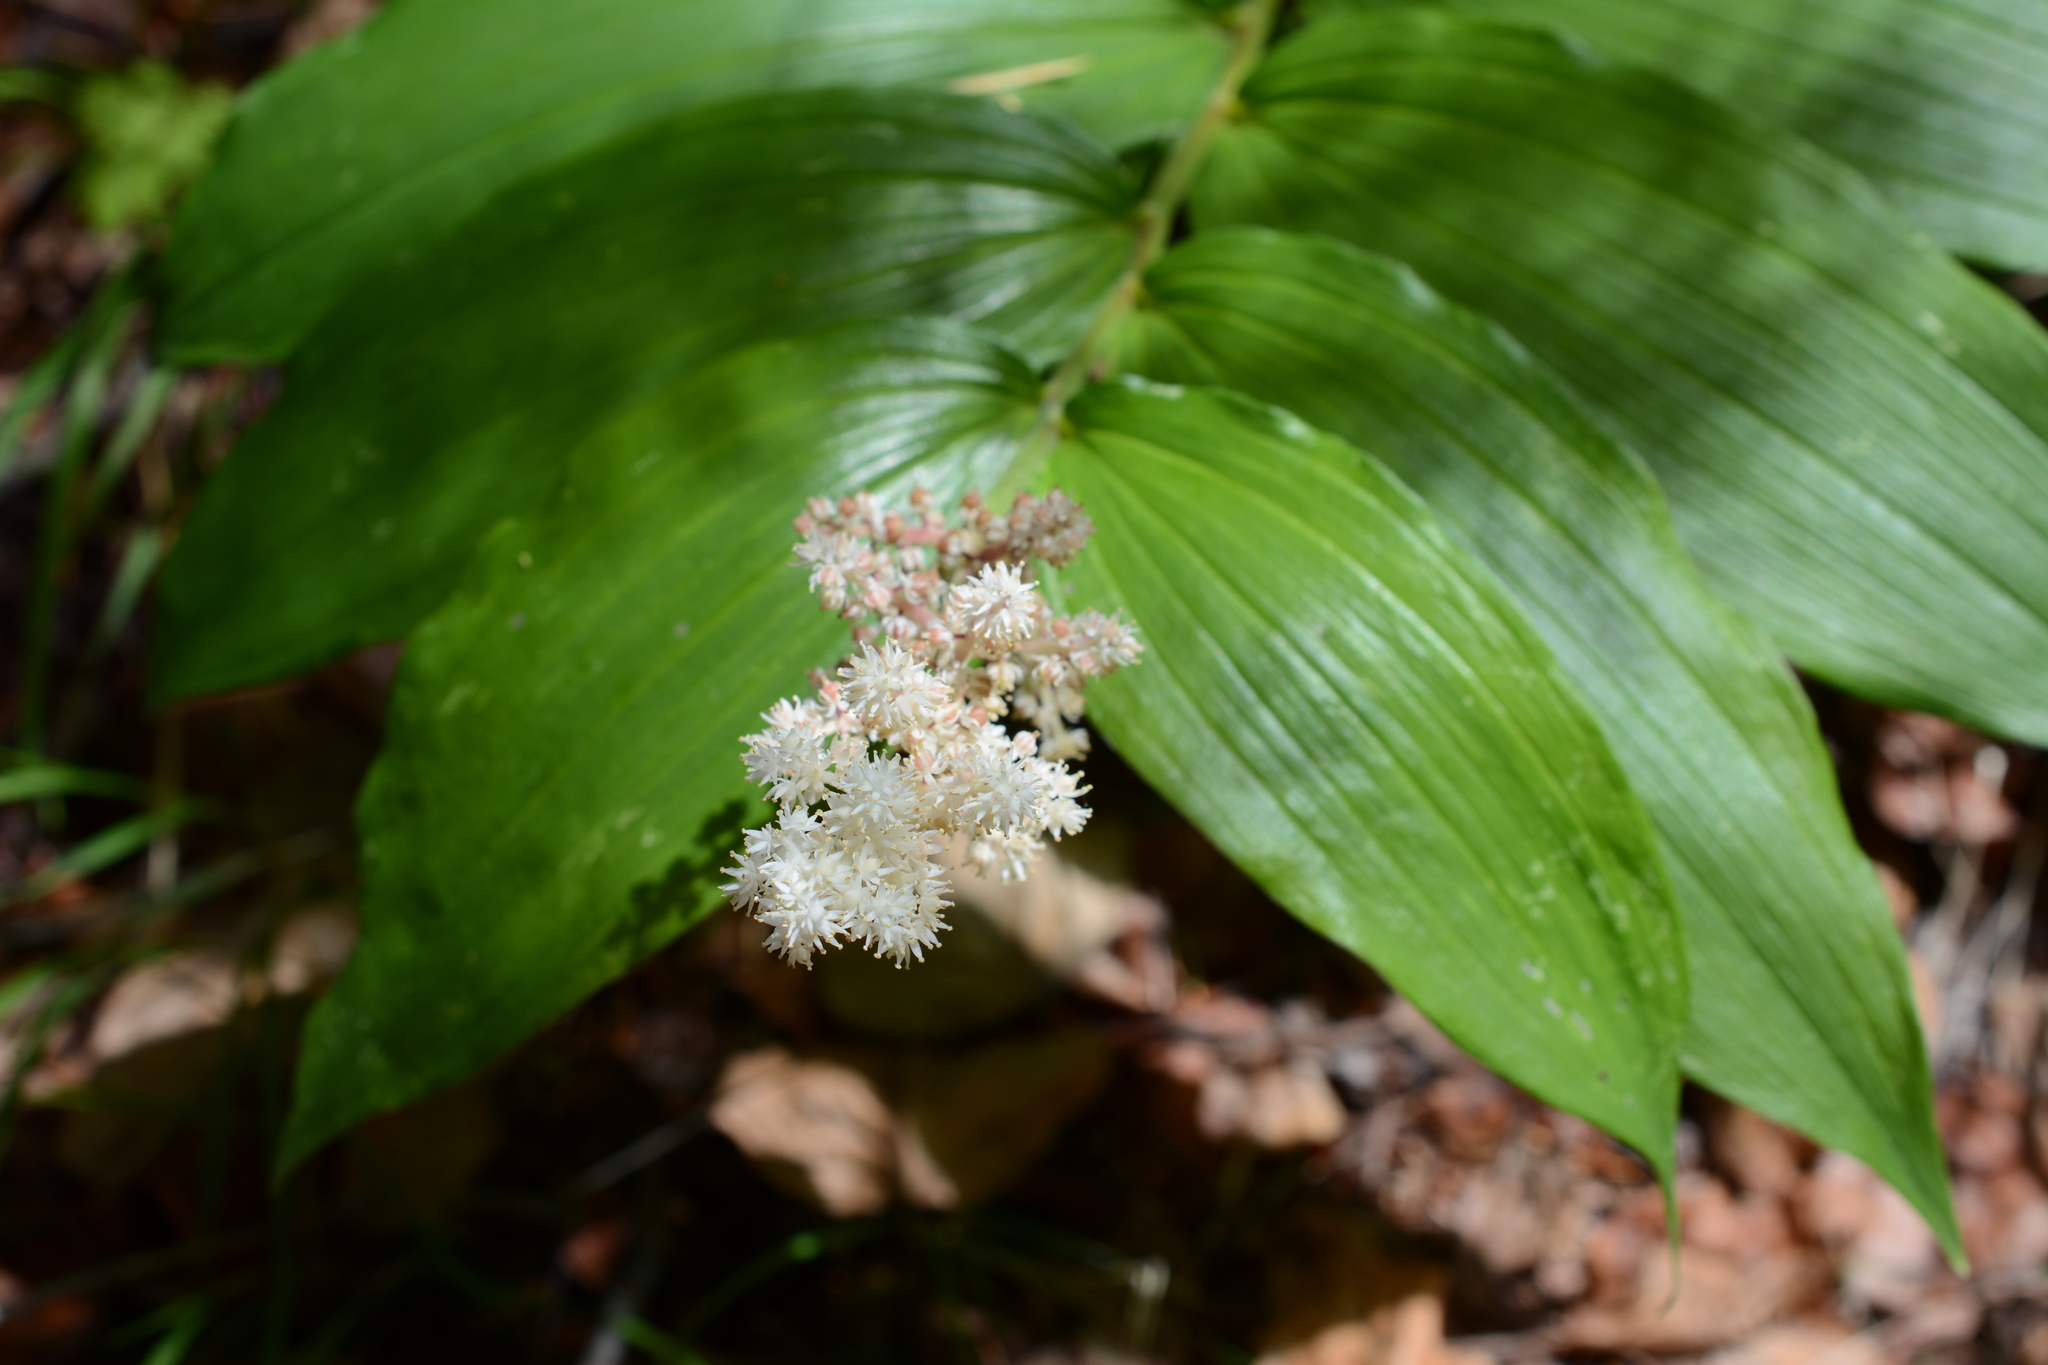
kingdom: Plantae
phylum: Tracheophyta
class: Liliopsida
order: Asparagales
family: Asparagaceae
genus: Maianthemum
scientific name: Maianthemum racemosum
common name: False spikenard
